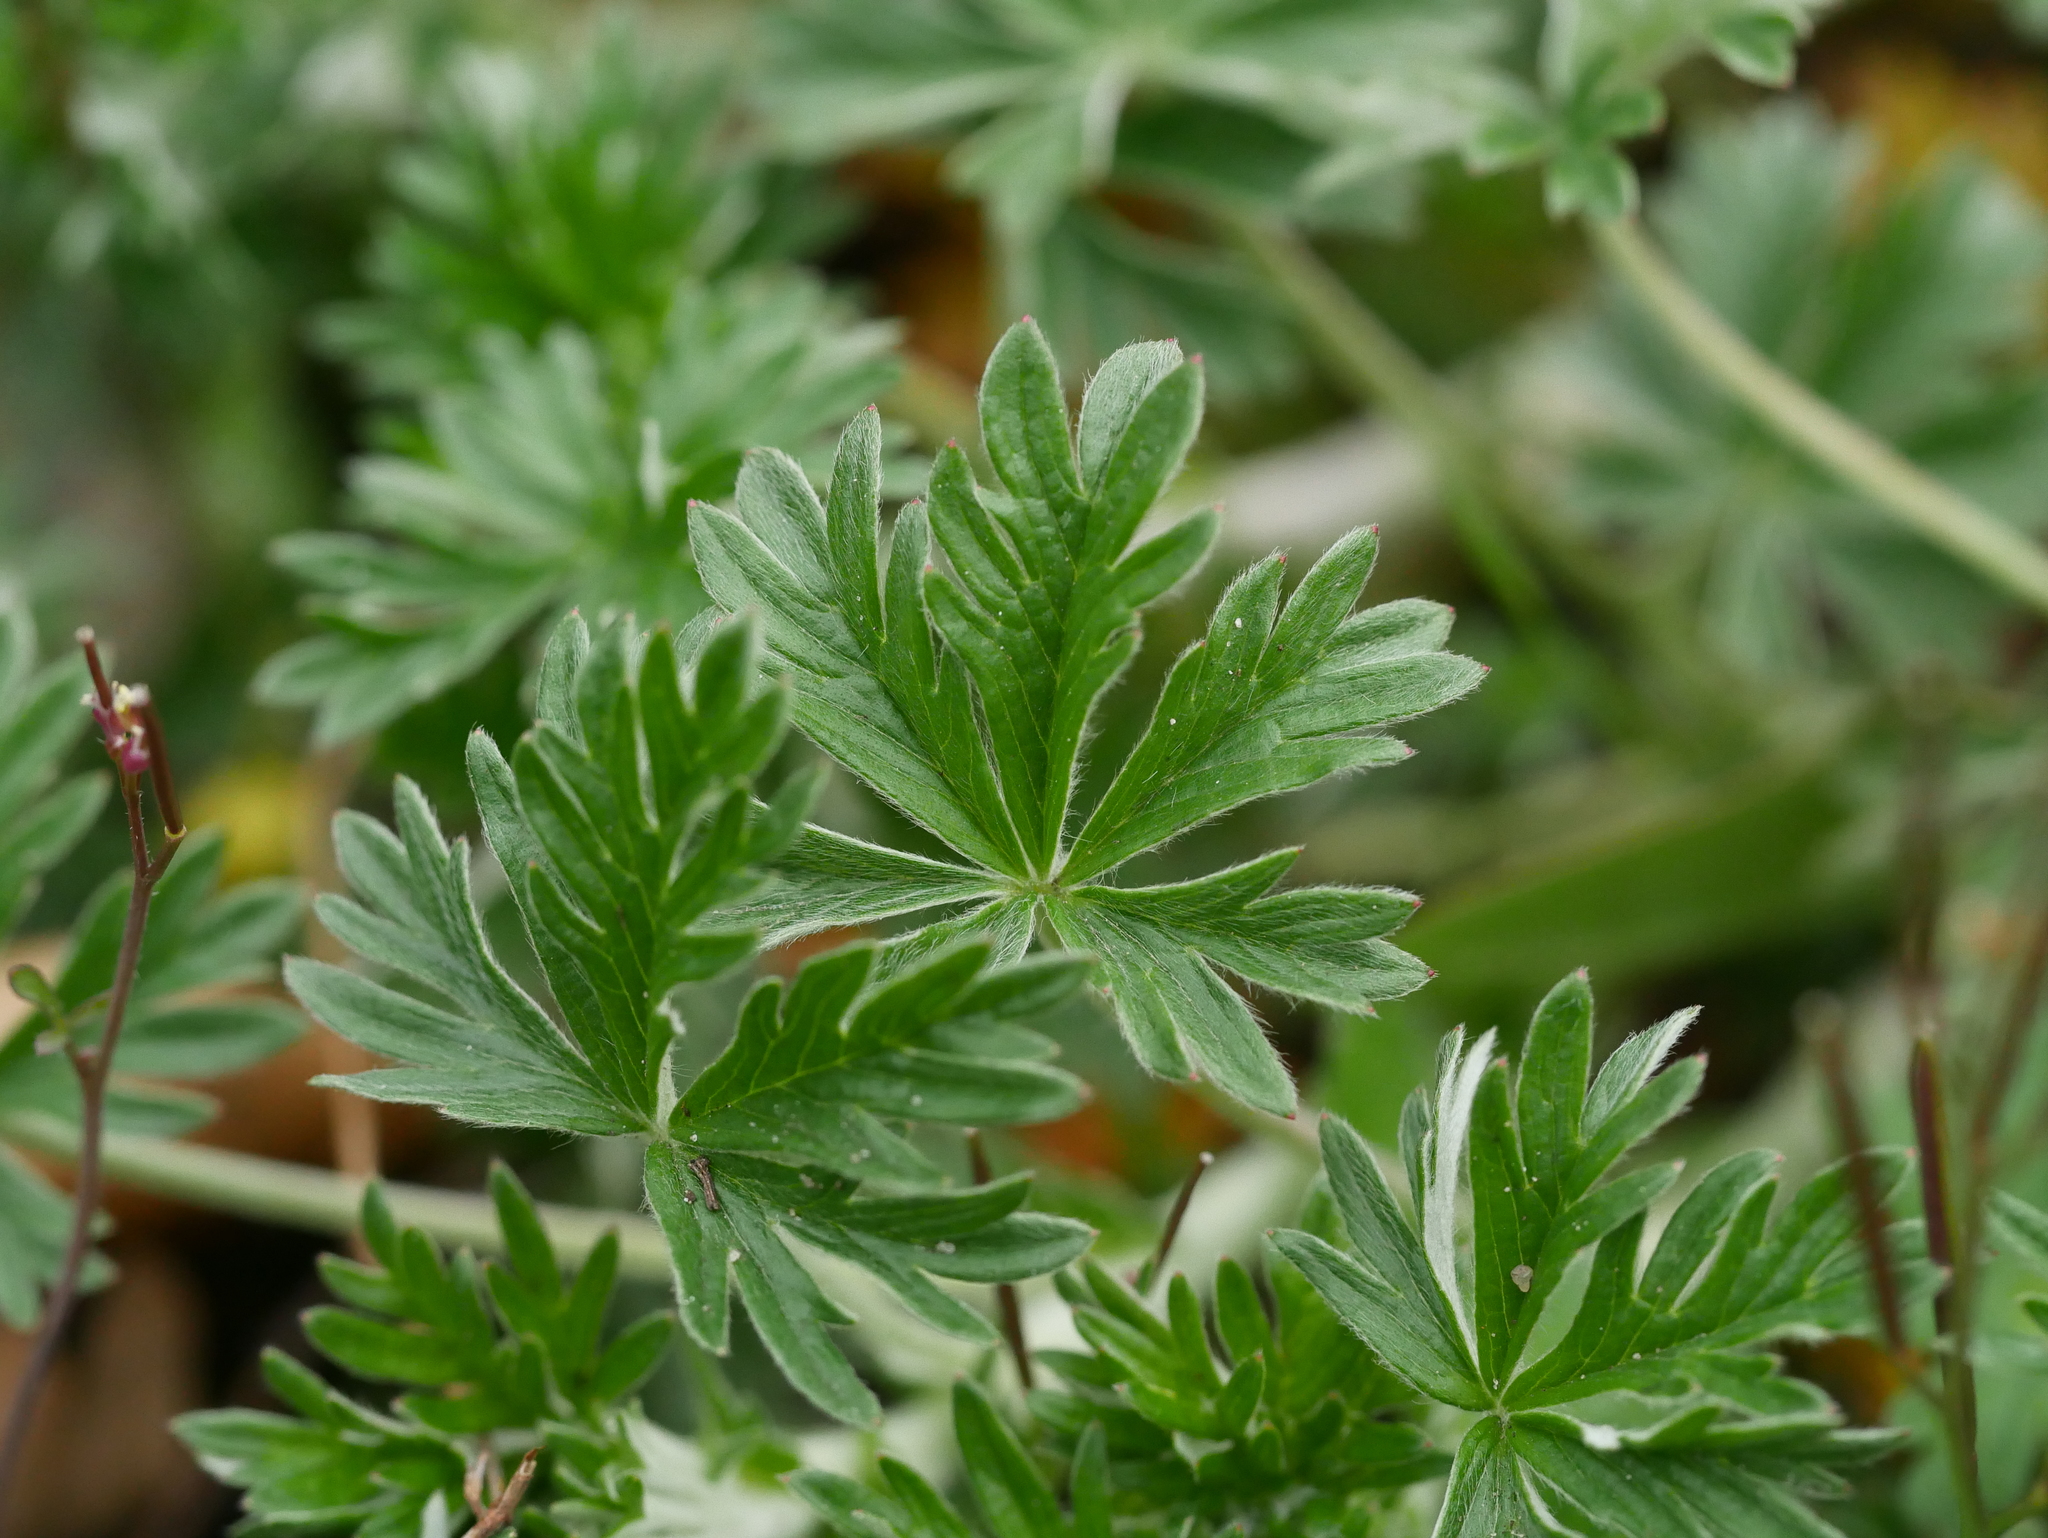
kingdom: Plantae
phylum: Tracheophyta
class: Magnoliopsida
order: Rosales
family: Rosaceae
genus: Potentilla
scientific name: Potentilla argentea
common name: Hoary cinquefoil
